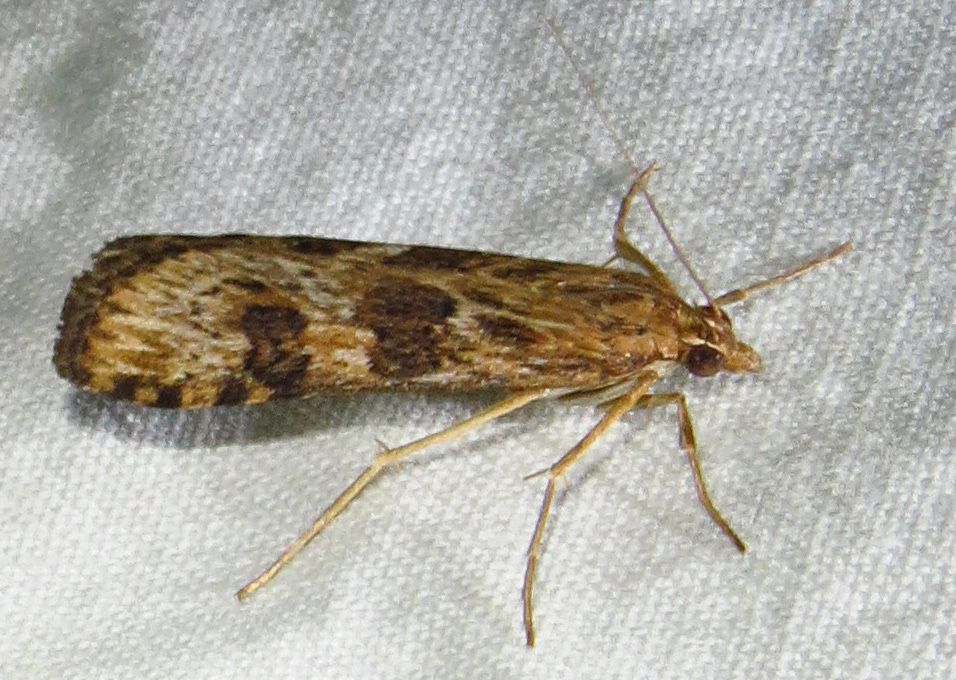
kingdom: Animalia
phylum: Arthropoda
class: Insecta
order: Lepidoptera
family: Crambidae
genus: Nomophila
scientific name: Nomophila nearctica
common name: American rush veneer
